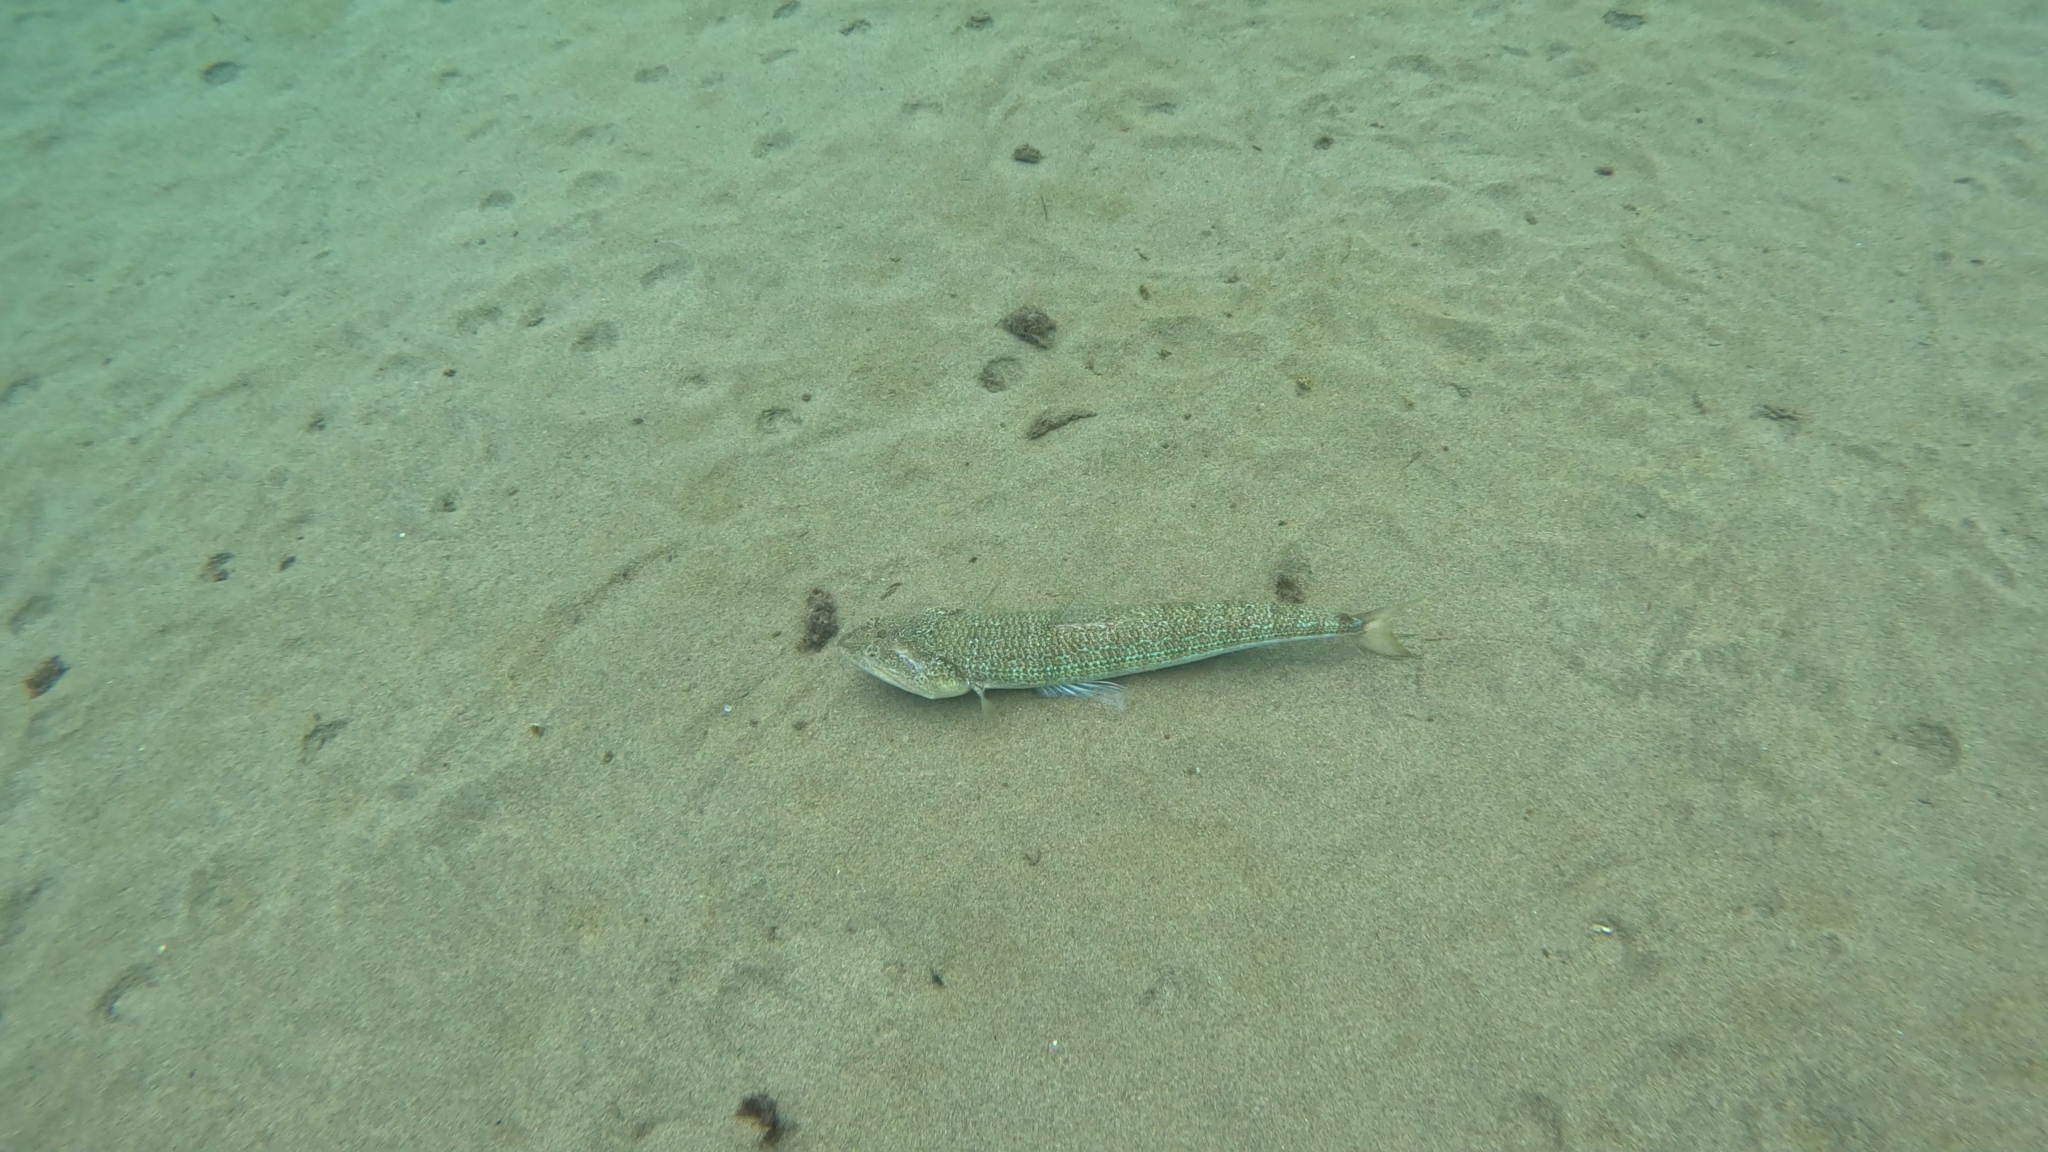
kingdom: Animalia
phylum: Chordata
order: Aulopiformes
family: Synodontidae
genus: Synodus
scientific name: Synodus saurus
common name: Atlantic lizardfish
